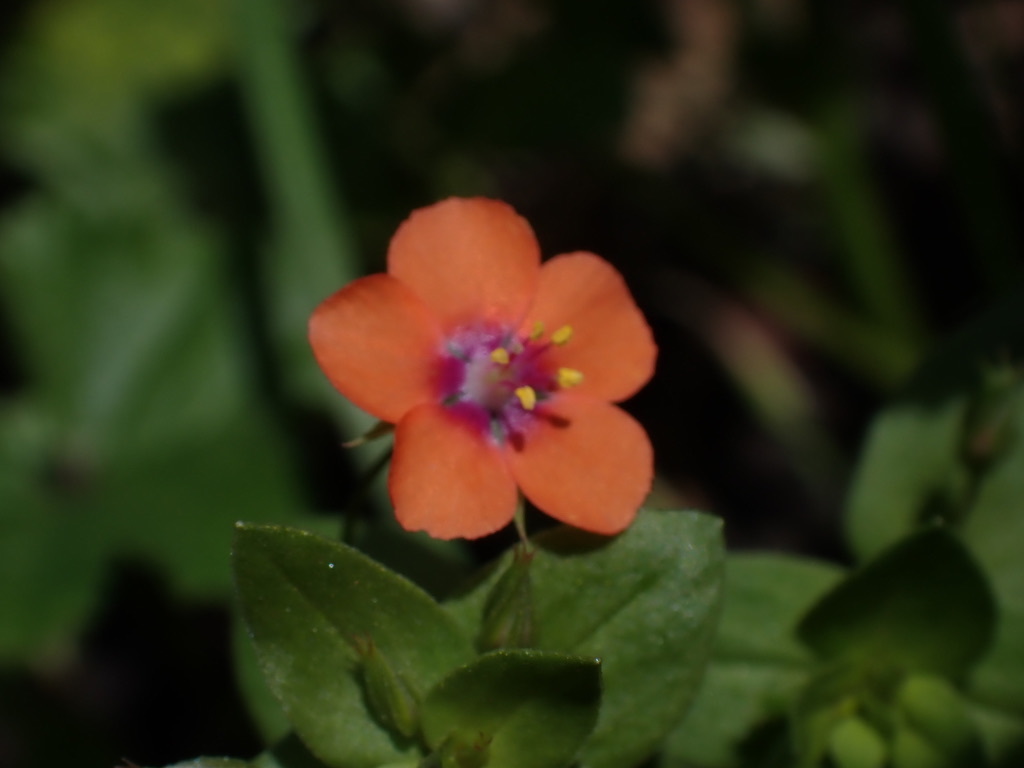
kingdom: Plantae
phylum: Tracheophyta
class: Magnoliopsida
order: Ericales
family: Primulaceae
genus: Lysimachia
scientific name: Lysimachia arvensis
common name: Scarlet pimpernel
